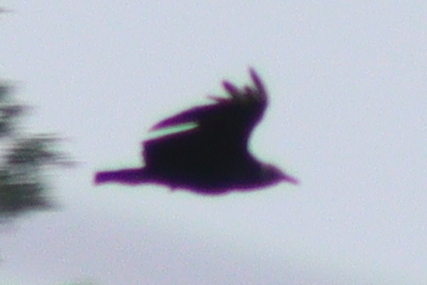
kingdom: Animalia
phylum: Chordata
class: Aves
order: Accipitriformes
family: Cathartidae
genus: Coragyps
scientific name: Coragyps atratus
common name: Black vulture
